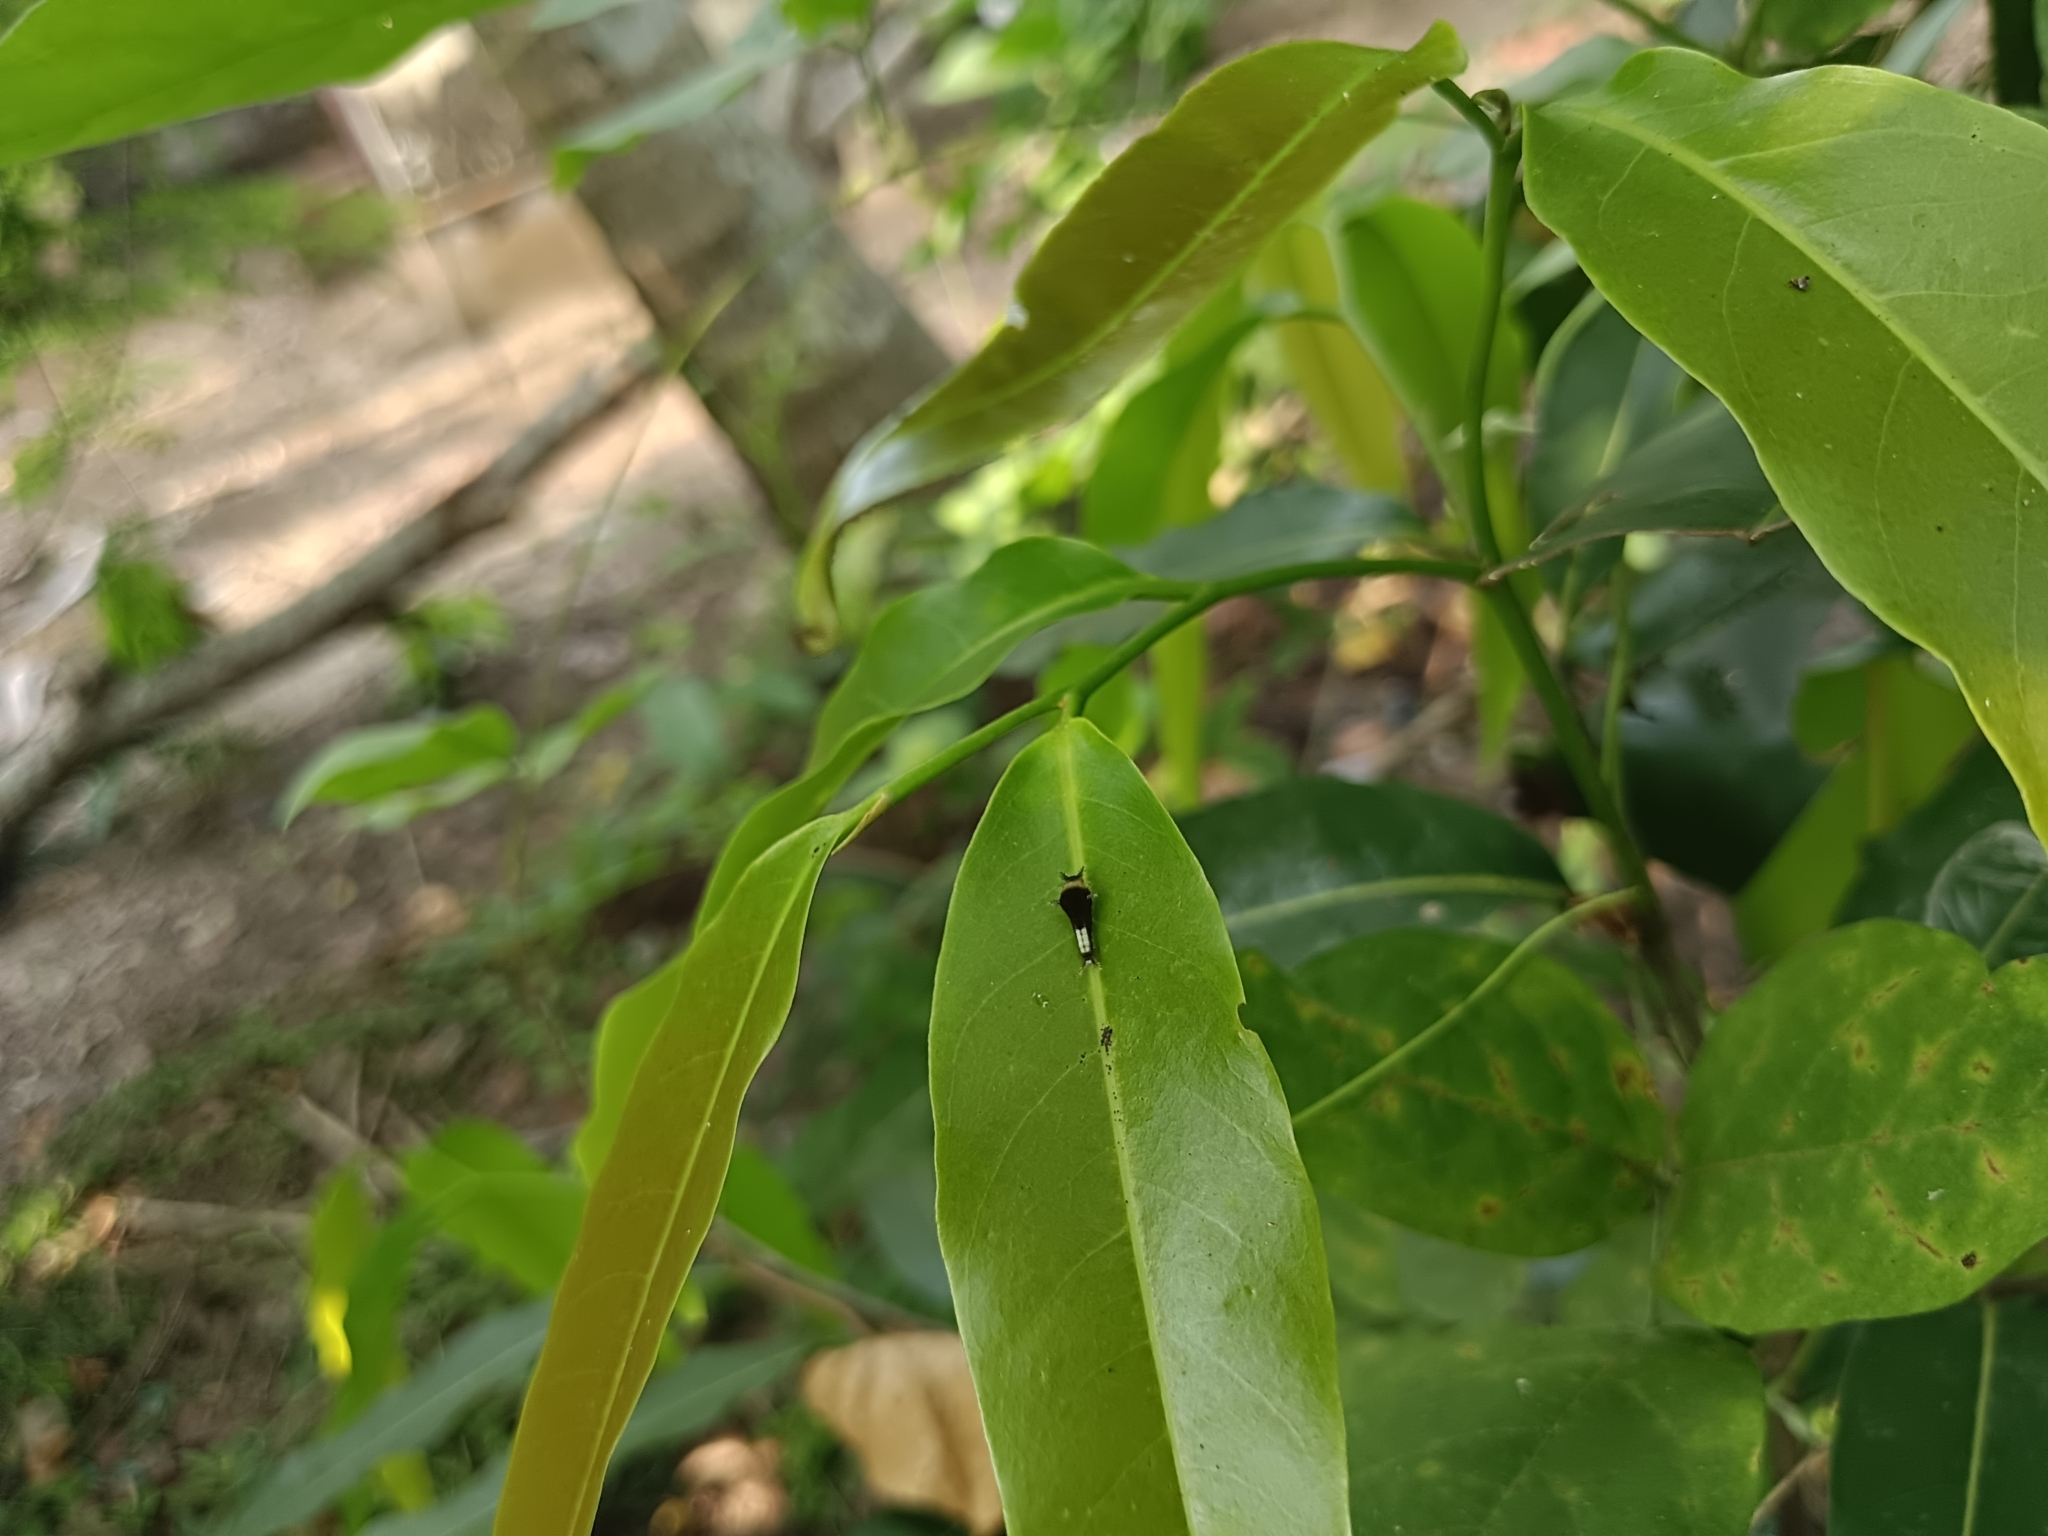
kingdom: Animalia
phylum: Arthropoda
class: Insecta
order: Lepidoptera
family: Papilionidae
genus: Graphium
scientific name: Graphium agamemnon
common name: Tailed jay
